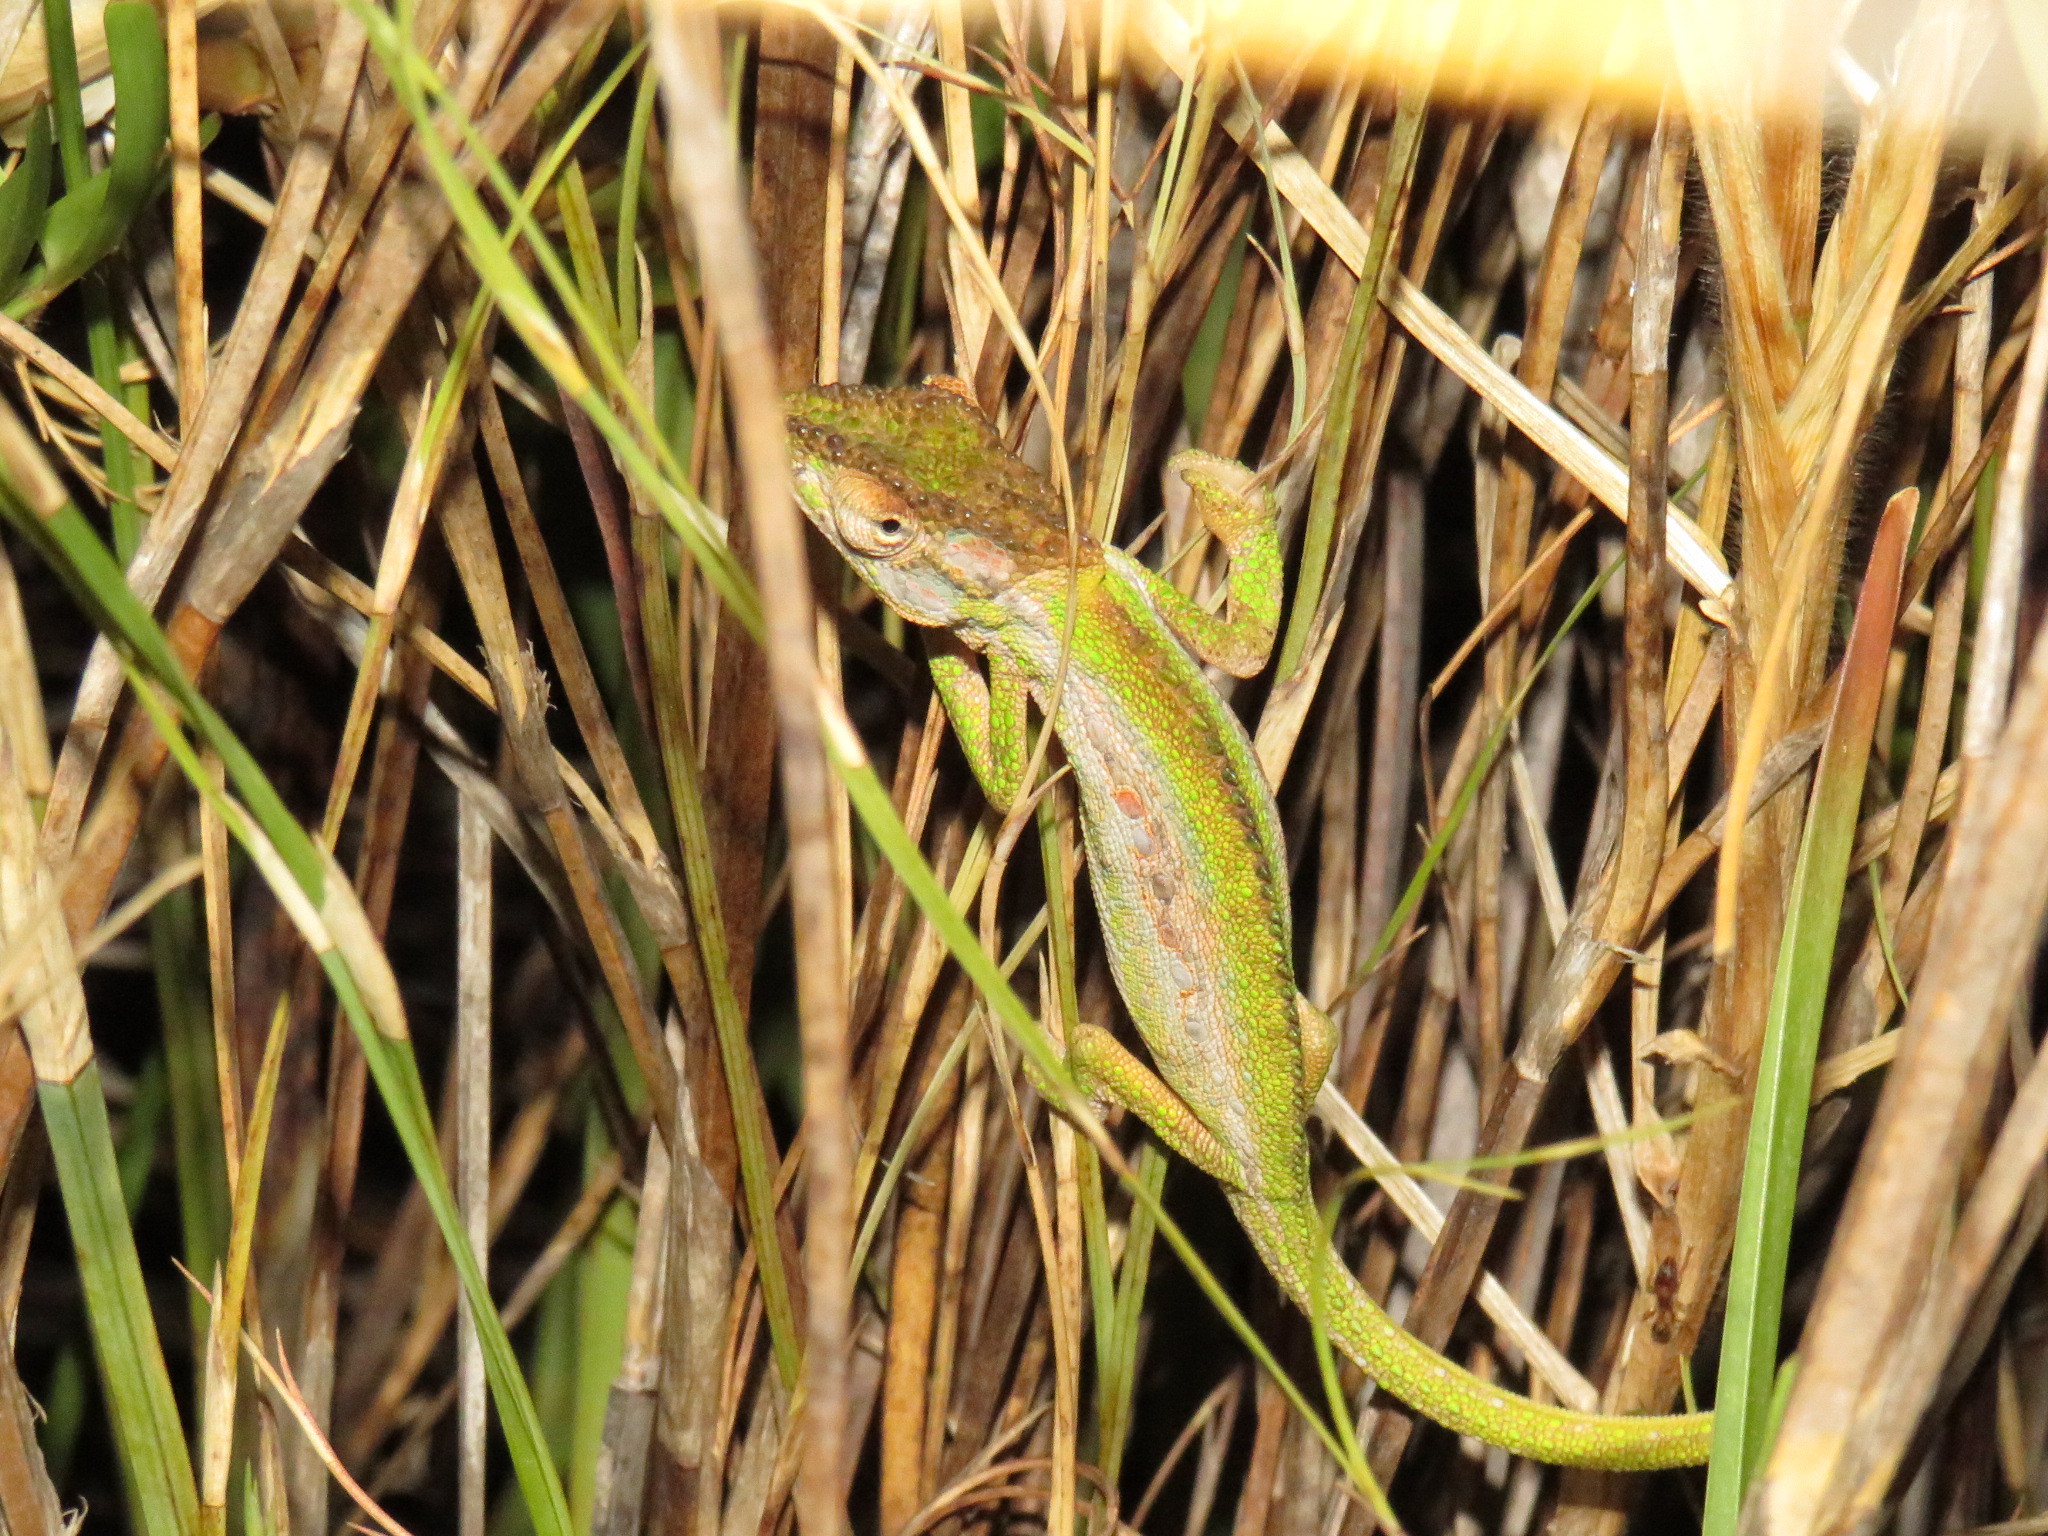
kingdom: Animalia
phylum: Chordata
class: Squamata
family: Chamaeleonidae
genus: Bradypodion
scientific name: Bradypodion pumilum
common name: Cape dwarf chameleon
